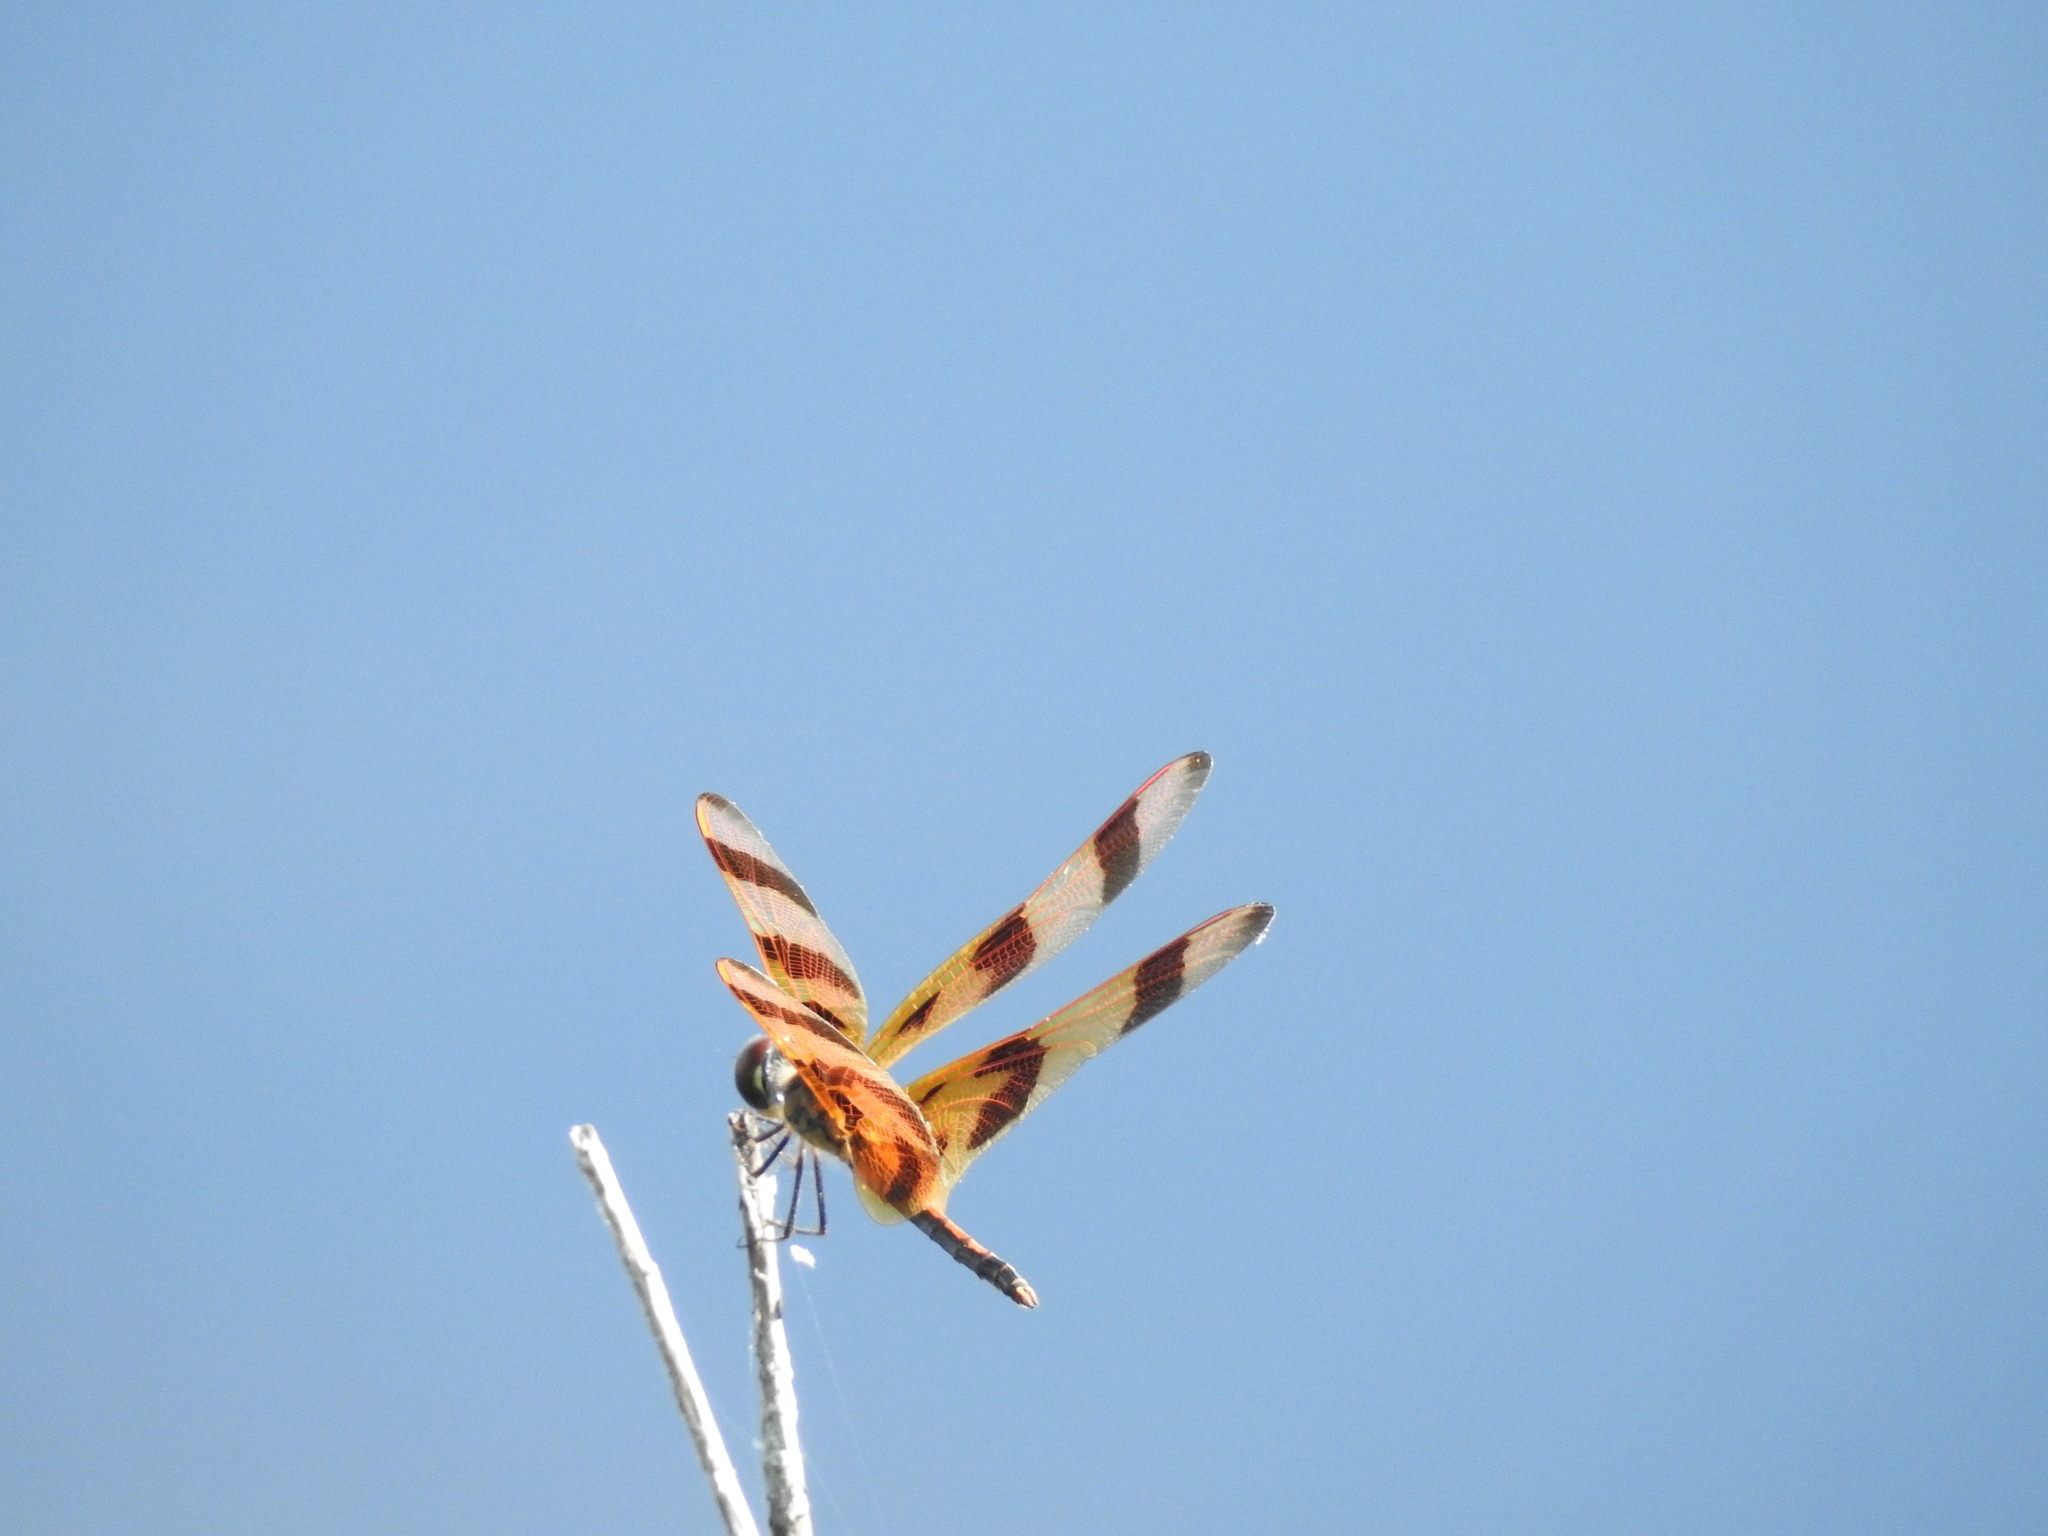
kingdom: Animalia
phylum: Arthropoda
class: Insecta
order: Odonata
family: Libellulidae
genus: Celithemis
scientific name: Celithemis eponina
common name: Halloween pennant
